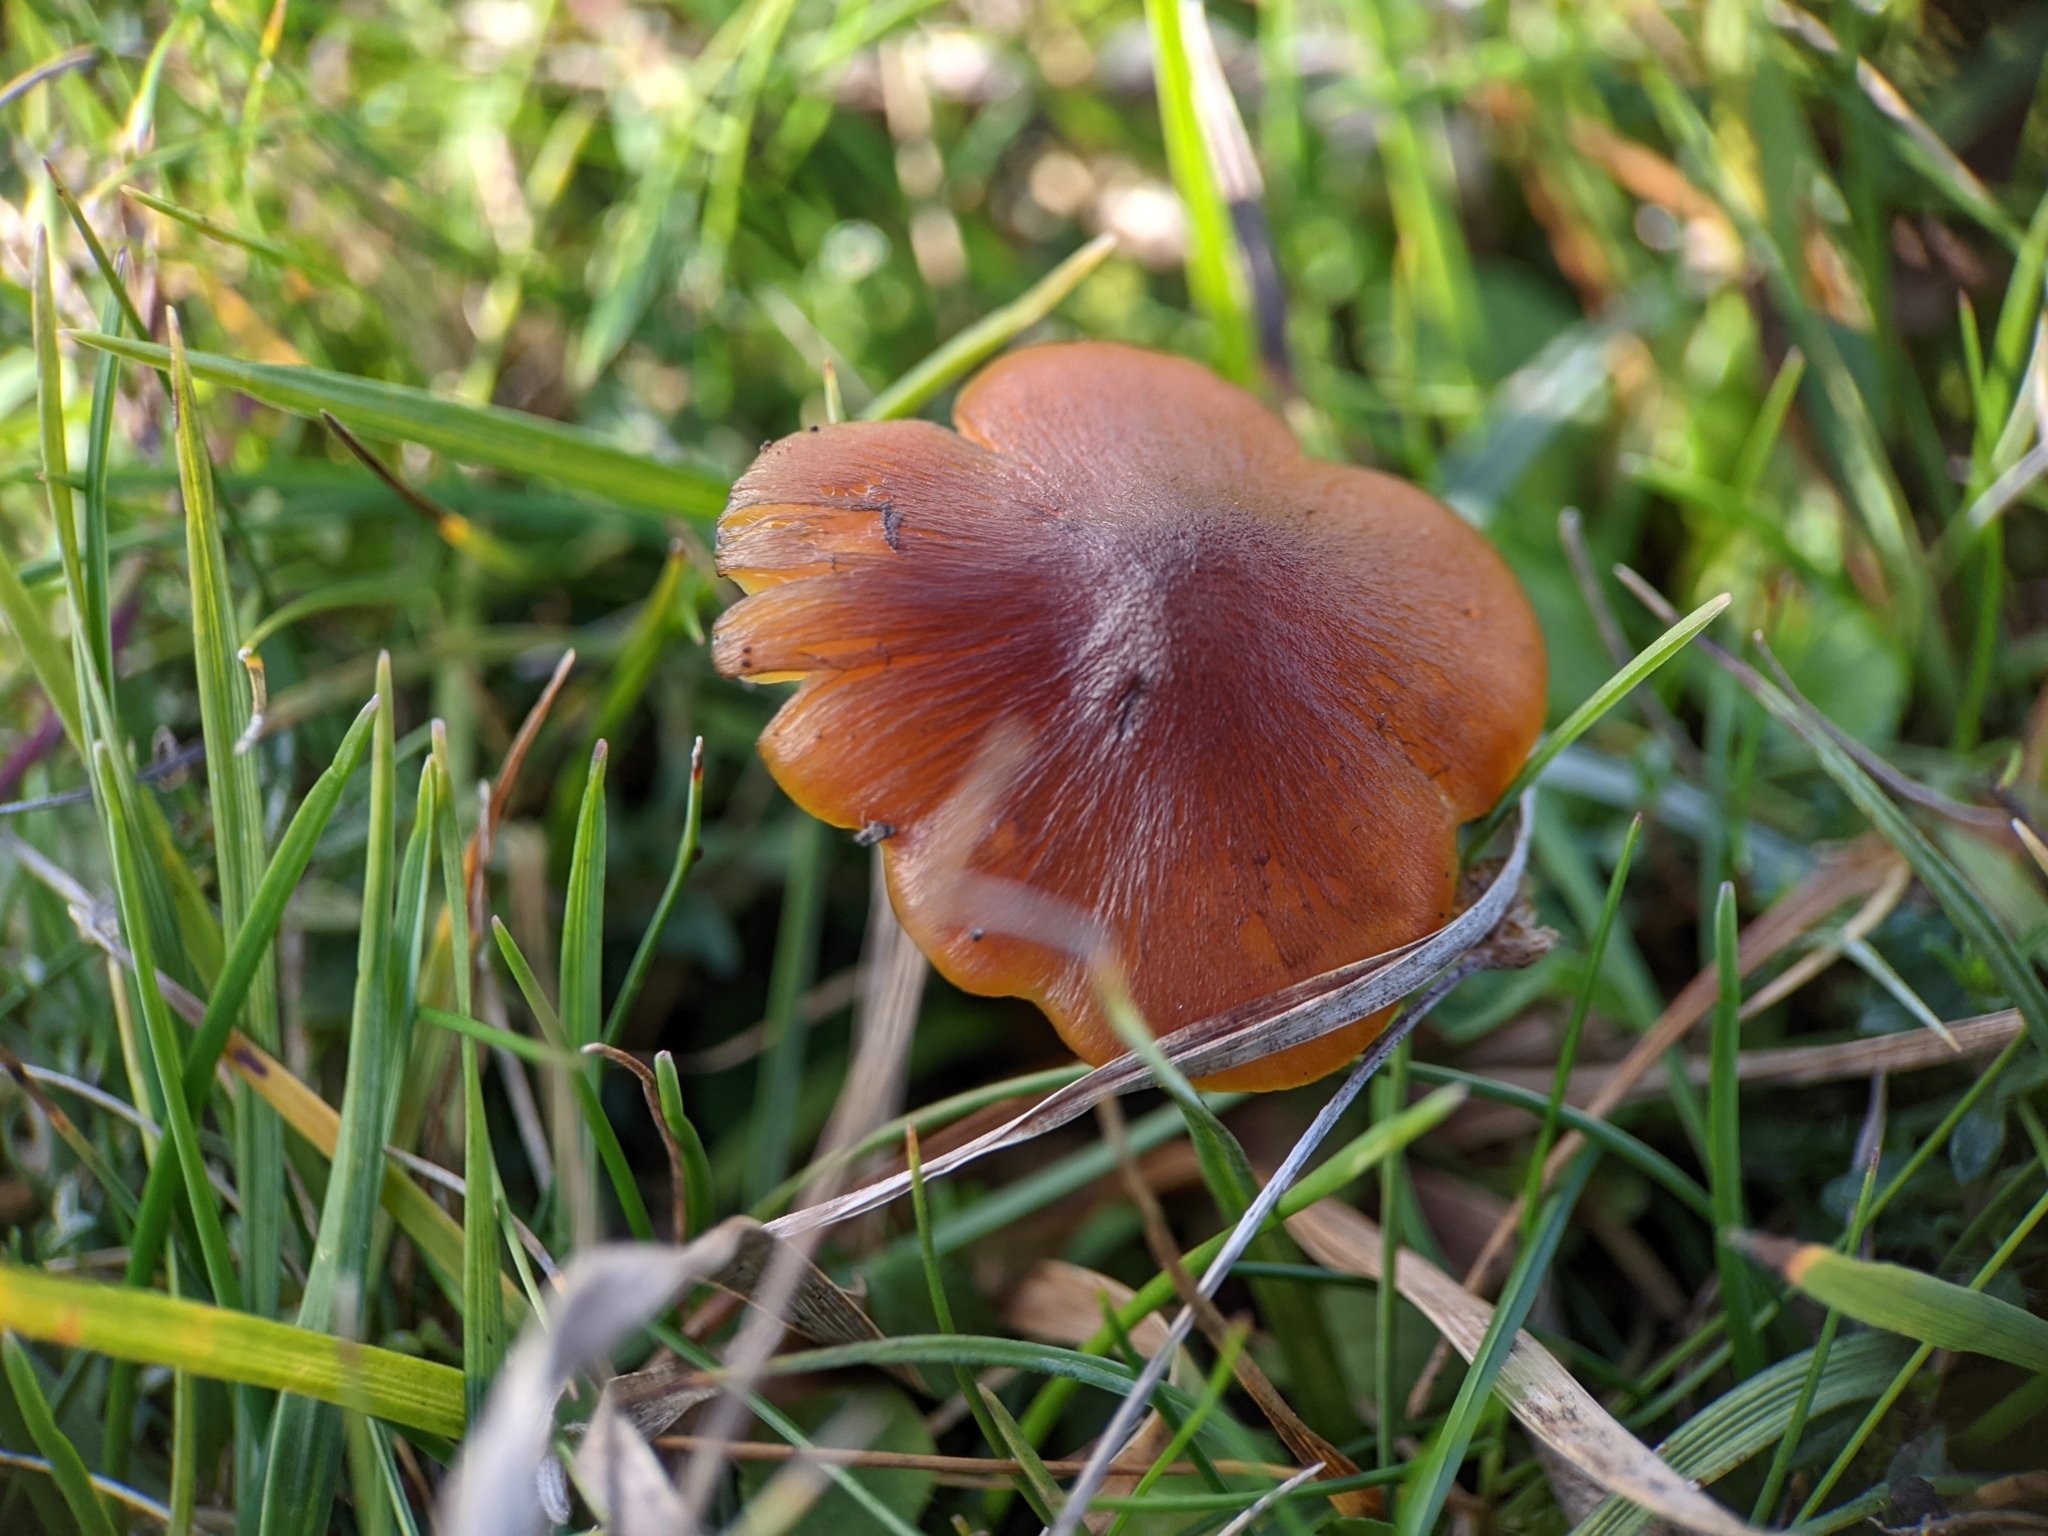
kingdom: Fungi
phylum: Basidiomycota
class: Agaricomycetes
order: Agaricales
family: Hygrophoraceae
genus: Hygrocybe
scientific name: Hygrocybe conica
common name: Blackening wax-cap
